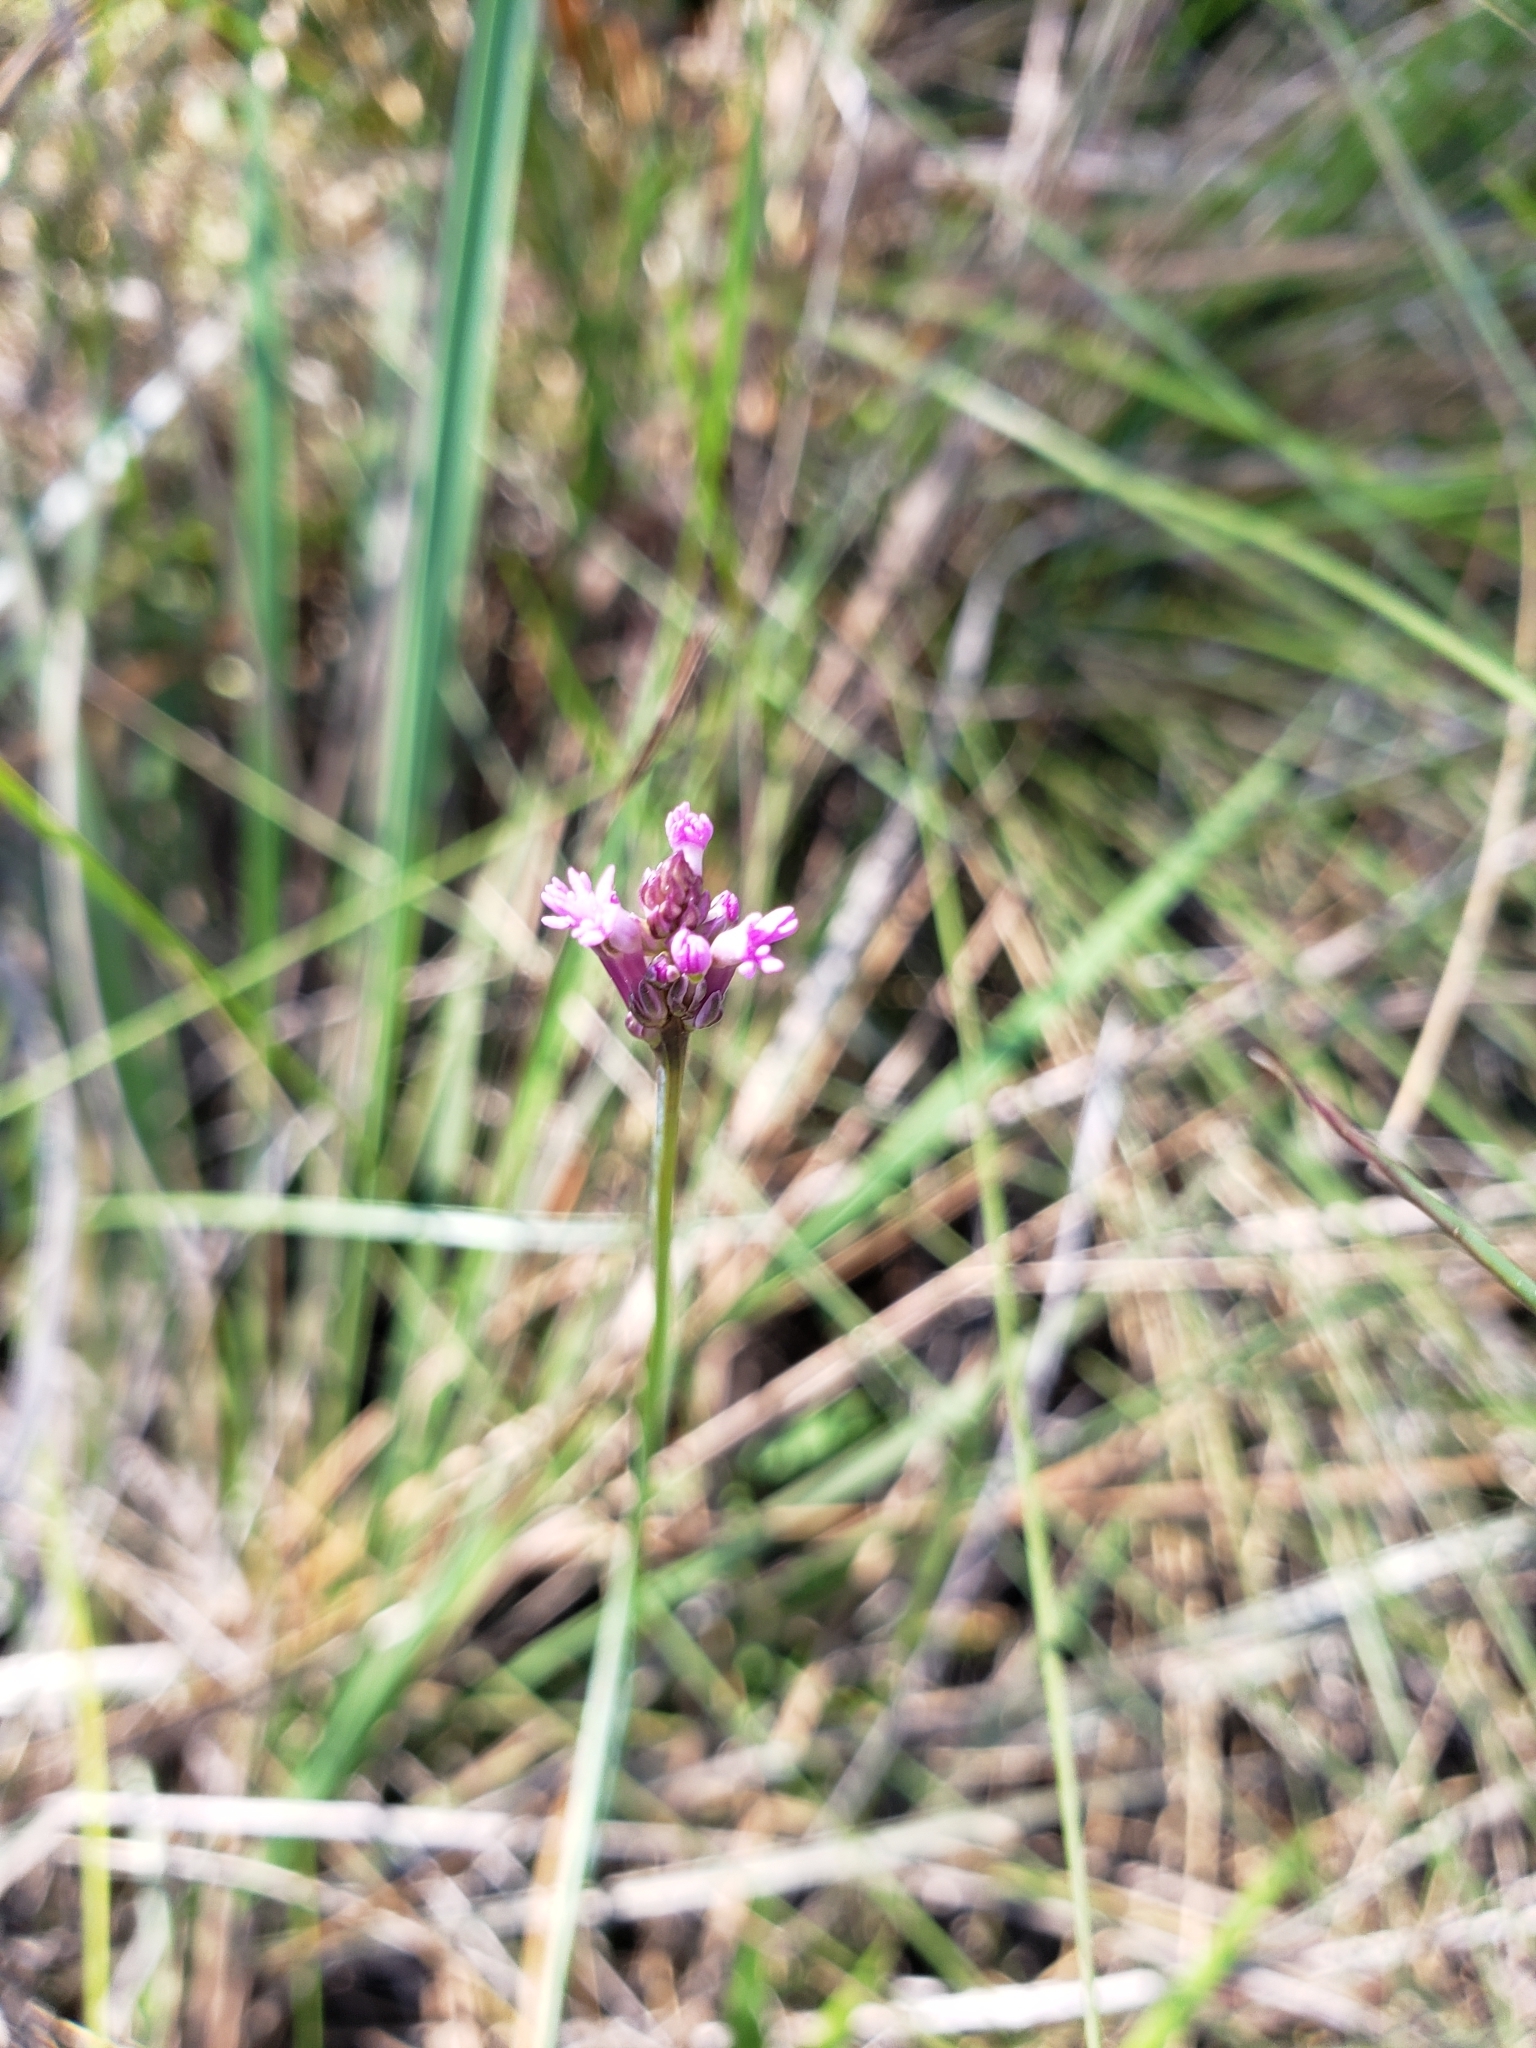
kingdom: Plantae
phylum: Tracheophyta
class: Magnoliopsida
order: Fabales
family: Polygalaceae
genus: Polygala
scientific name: Polygala incarnata
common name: Pink milkwort
